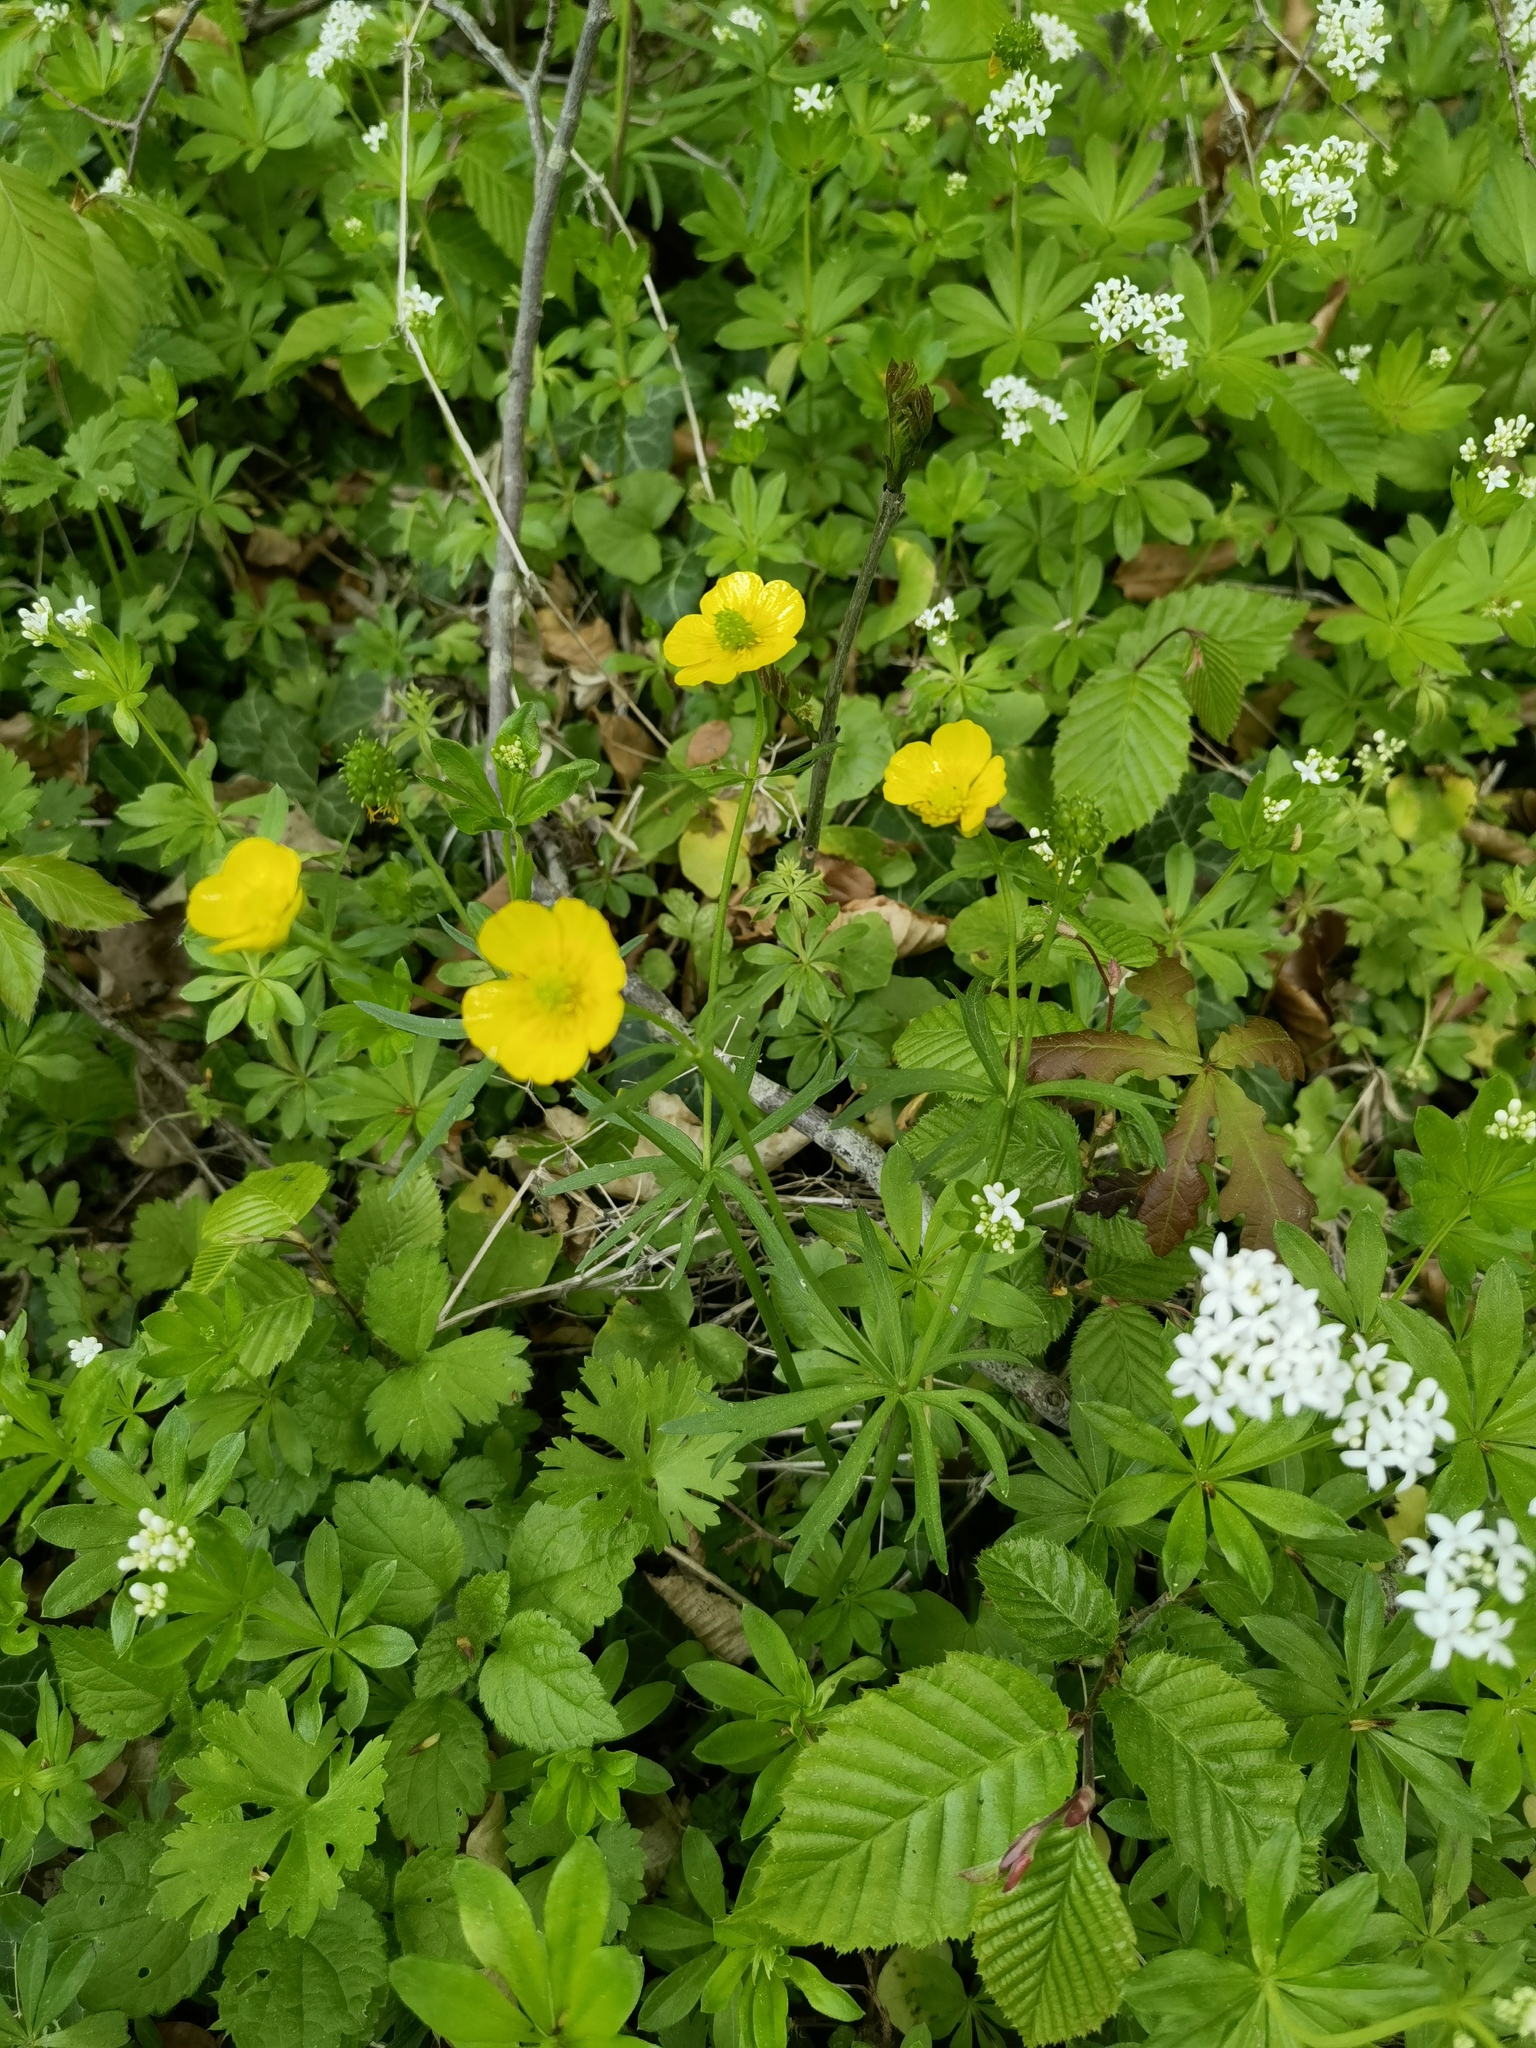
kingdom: Plantae
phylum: Tracheophyta
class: Magnoliopsida
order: Ranunculales
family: Ranunculaceae
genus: Ranunculus
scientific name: Ranunculus auricomus
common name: Goldilocks buttercup
